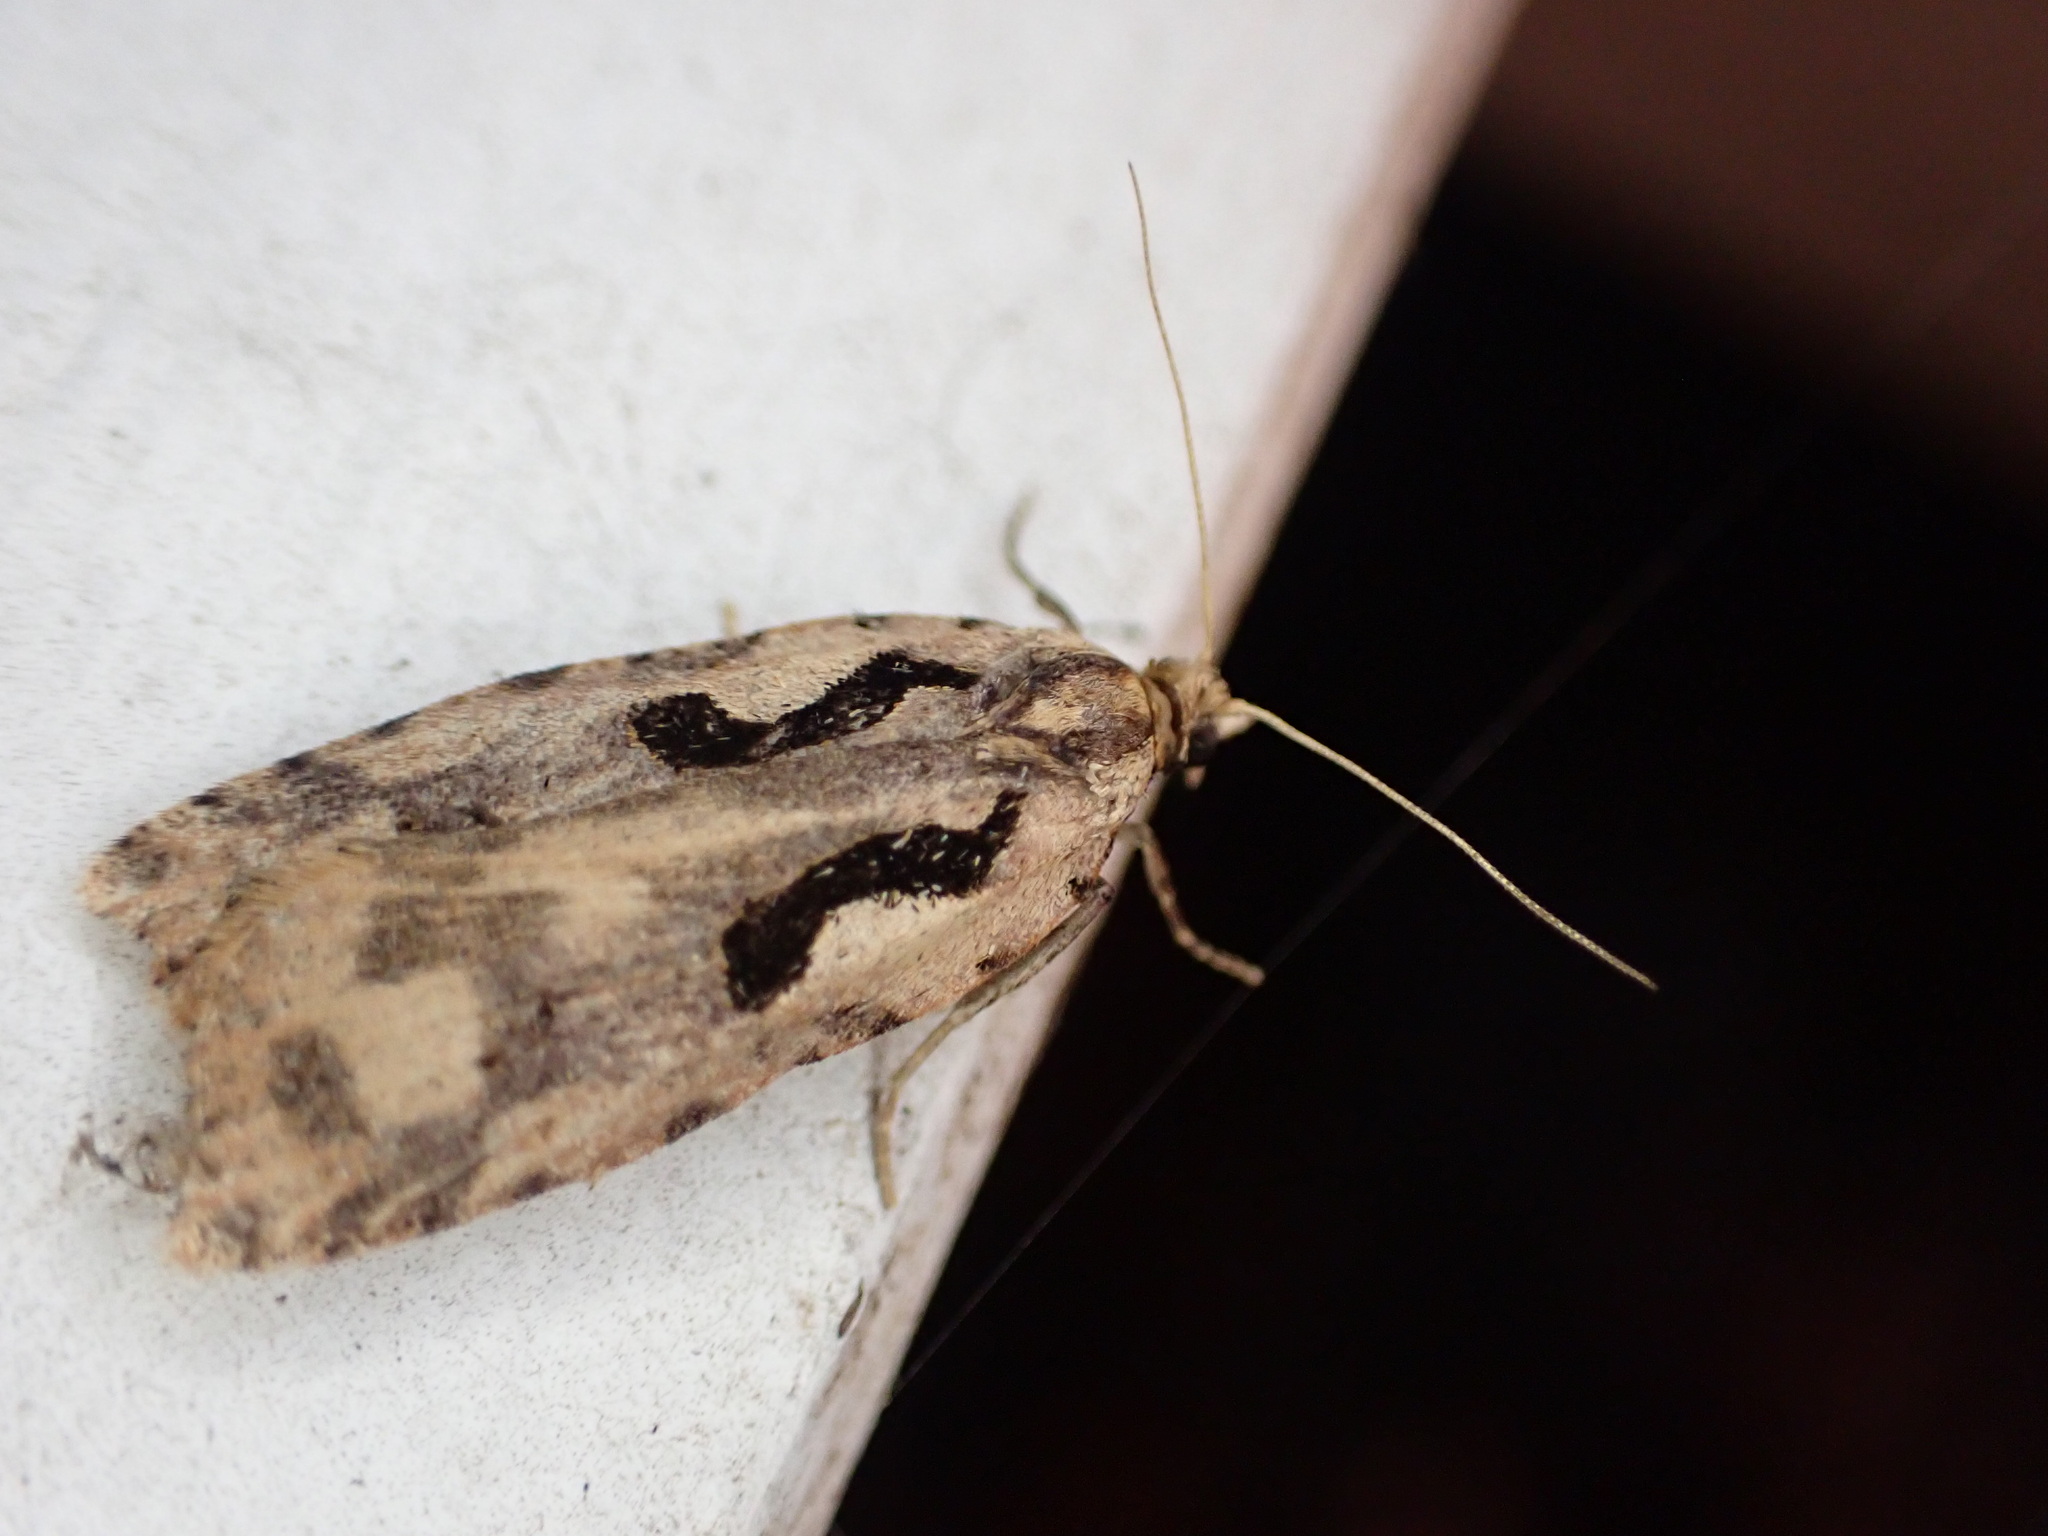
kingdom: Animalia
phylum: Arthropoda
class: Insecta
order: Lepidoptera
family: Tortricidae
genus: Cnephasia
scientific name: Cnephasia jactatana
